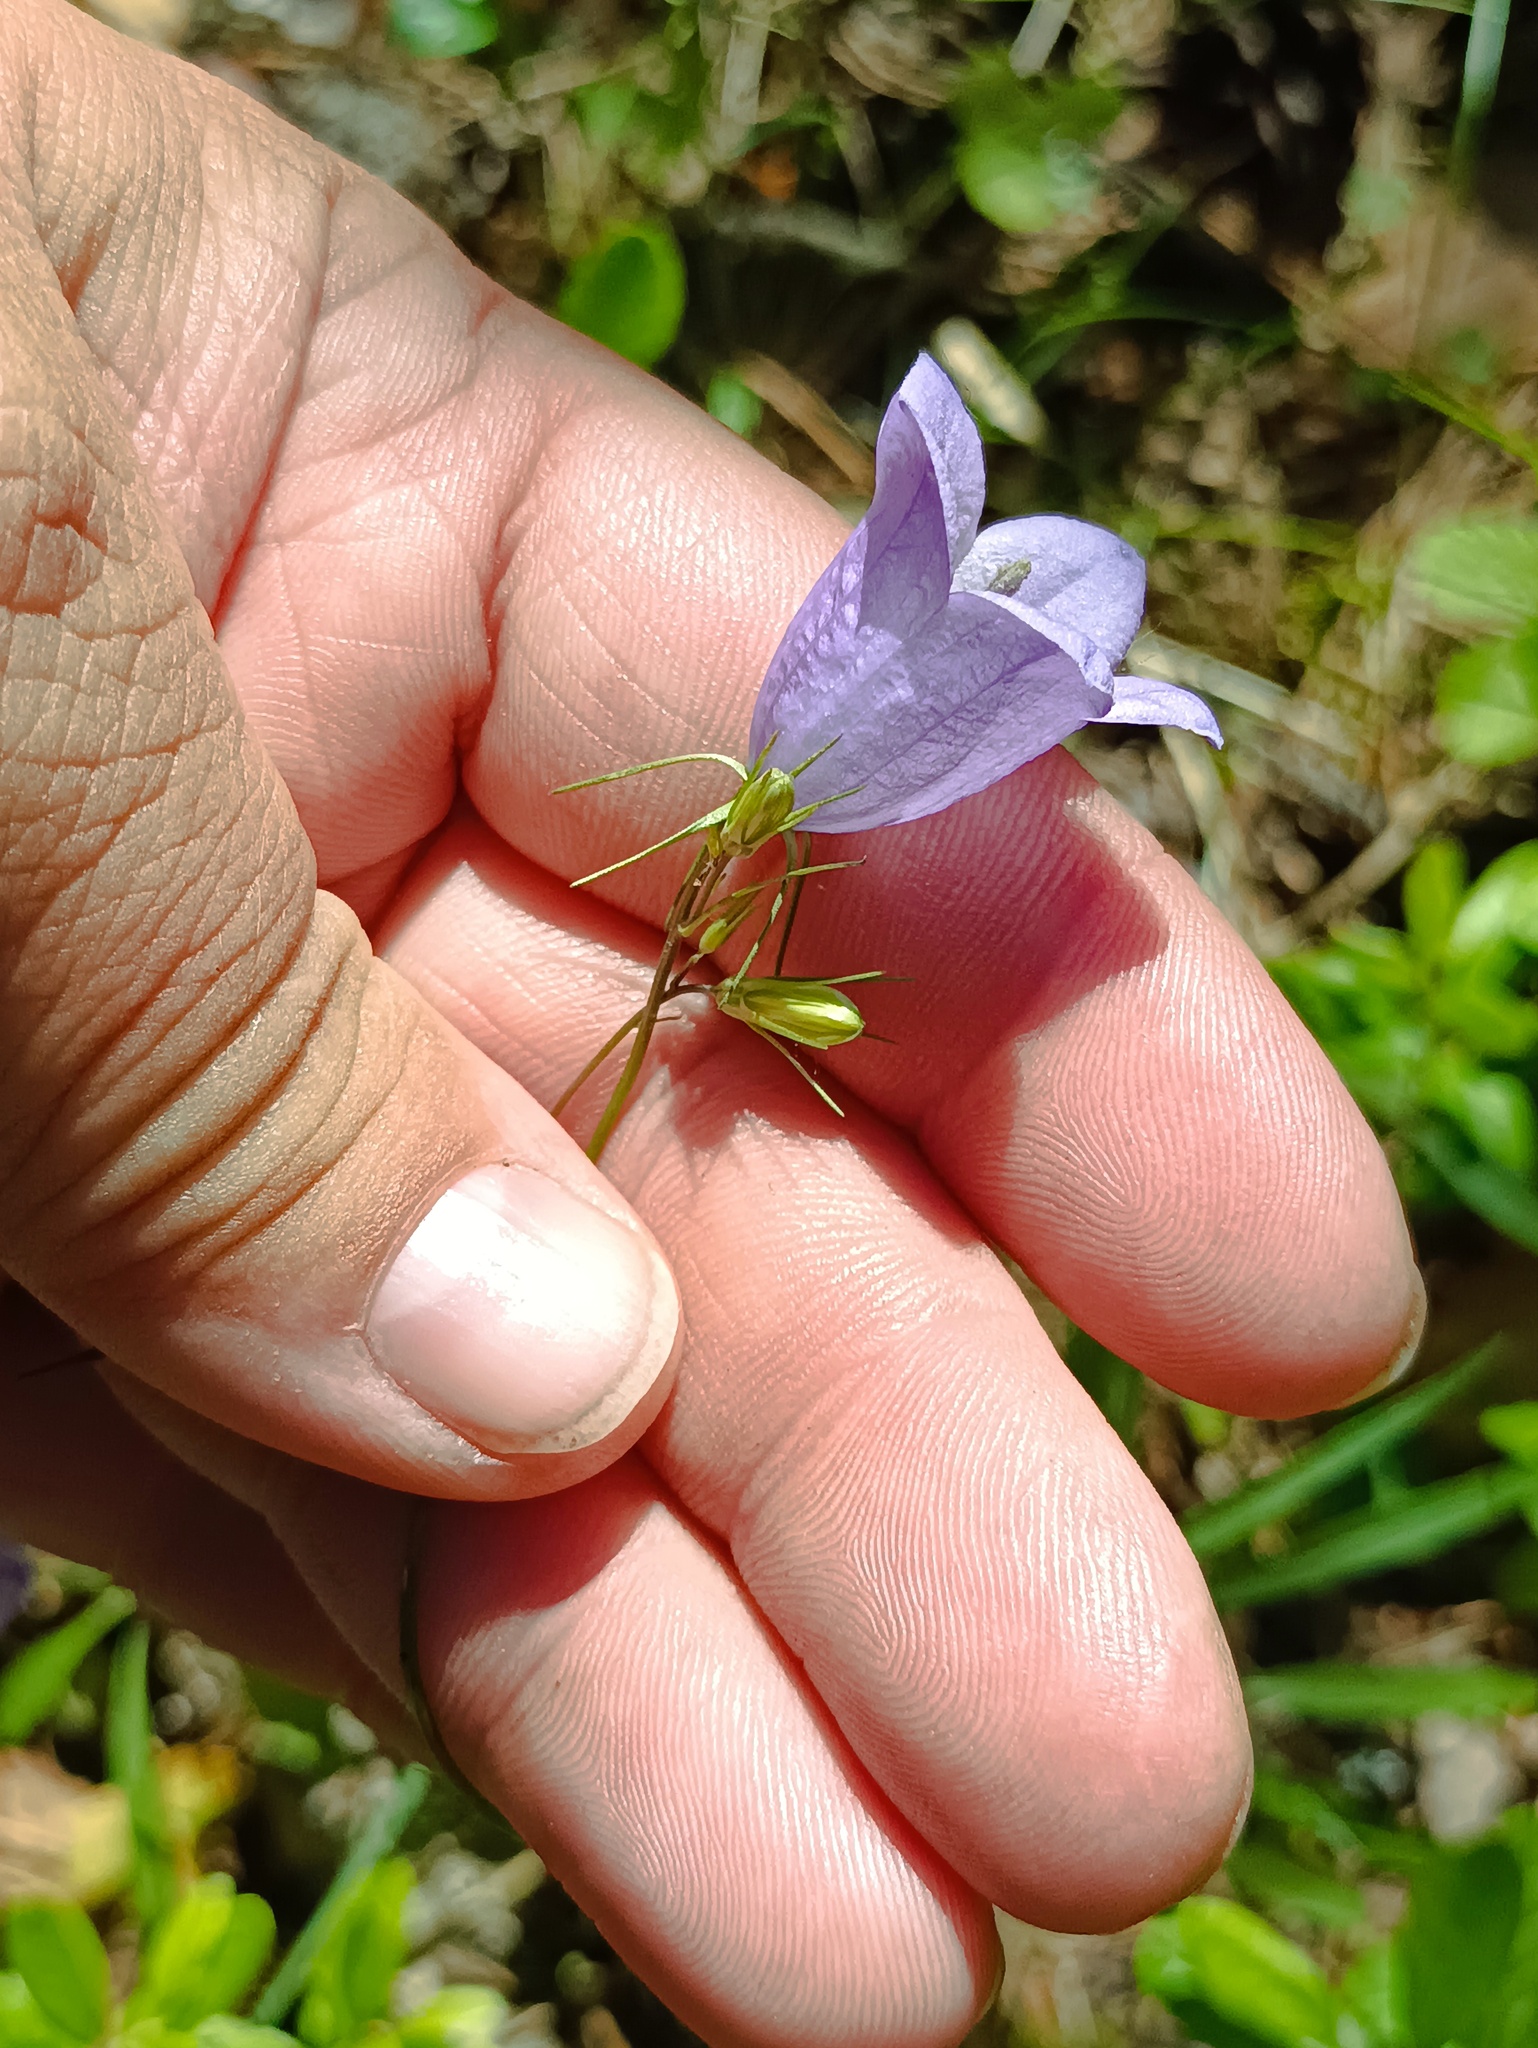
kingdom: Plantae
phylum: Tracheophyta
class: Magnoliopsida
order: Asterales
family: Campanulaceae
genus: Campanula
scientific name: Campanula rotundifolia
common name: Harebell
